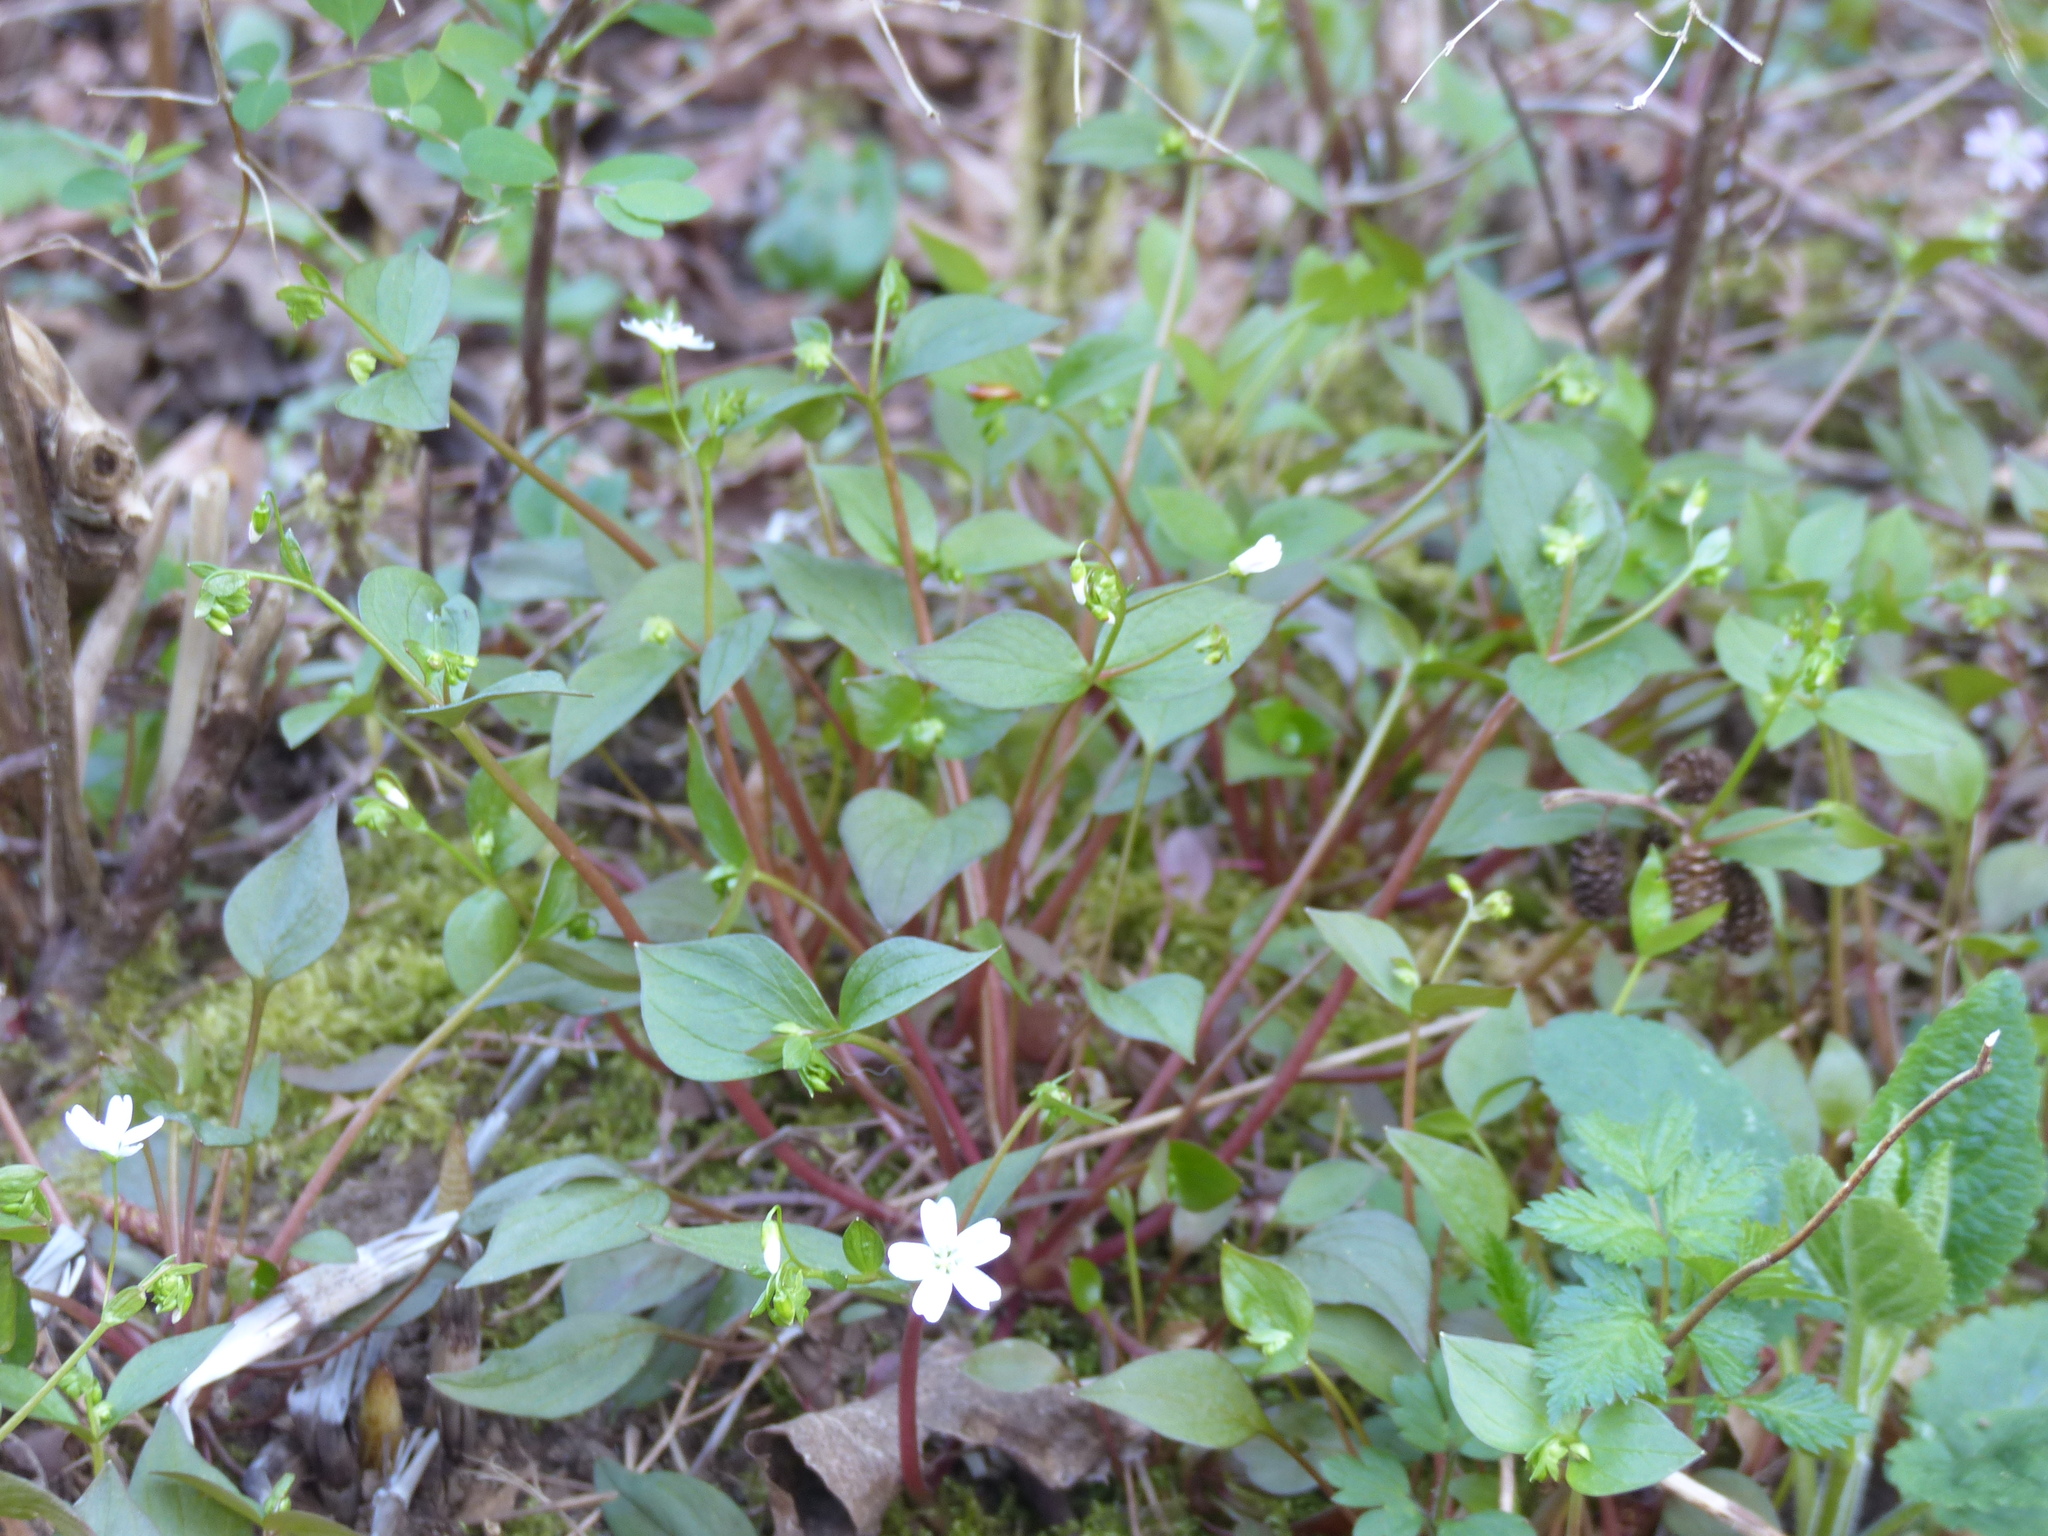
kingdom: Plantae
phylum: Tracheophyta
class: Magnoliopsida
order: Caryophyllales
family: Montiaceae
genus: Claytonia
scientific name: Claytonia sibirica
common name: Pink purslane
